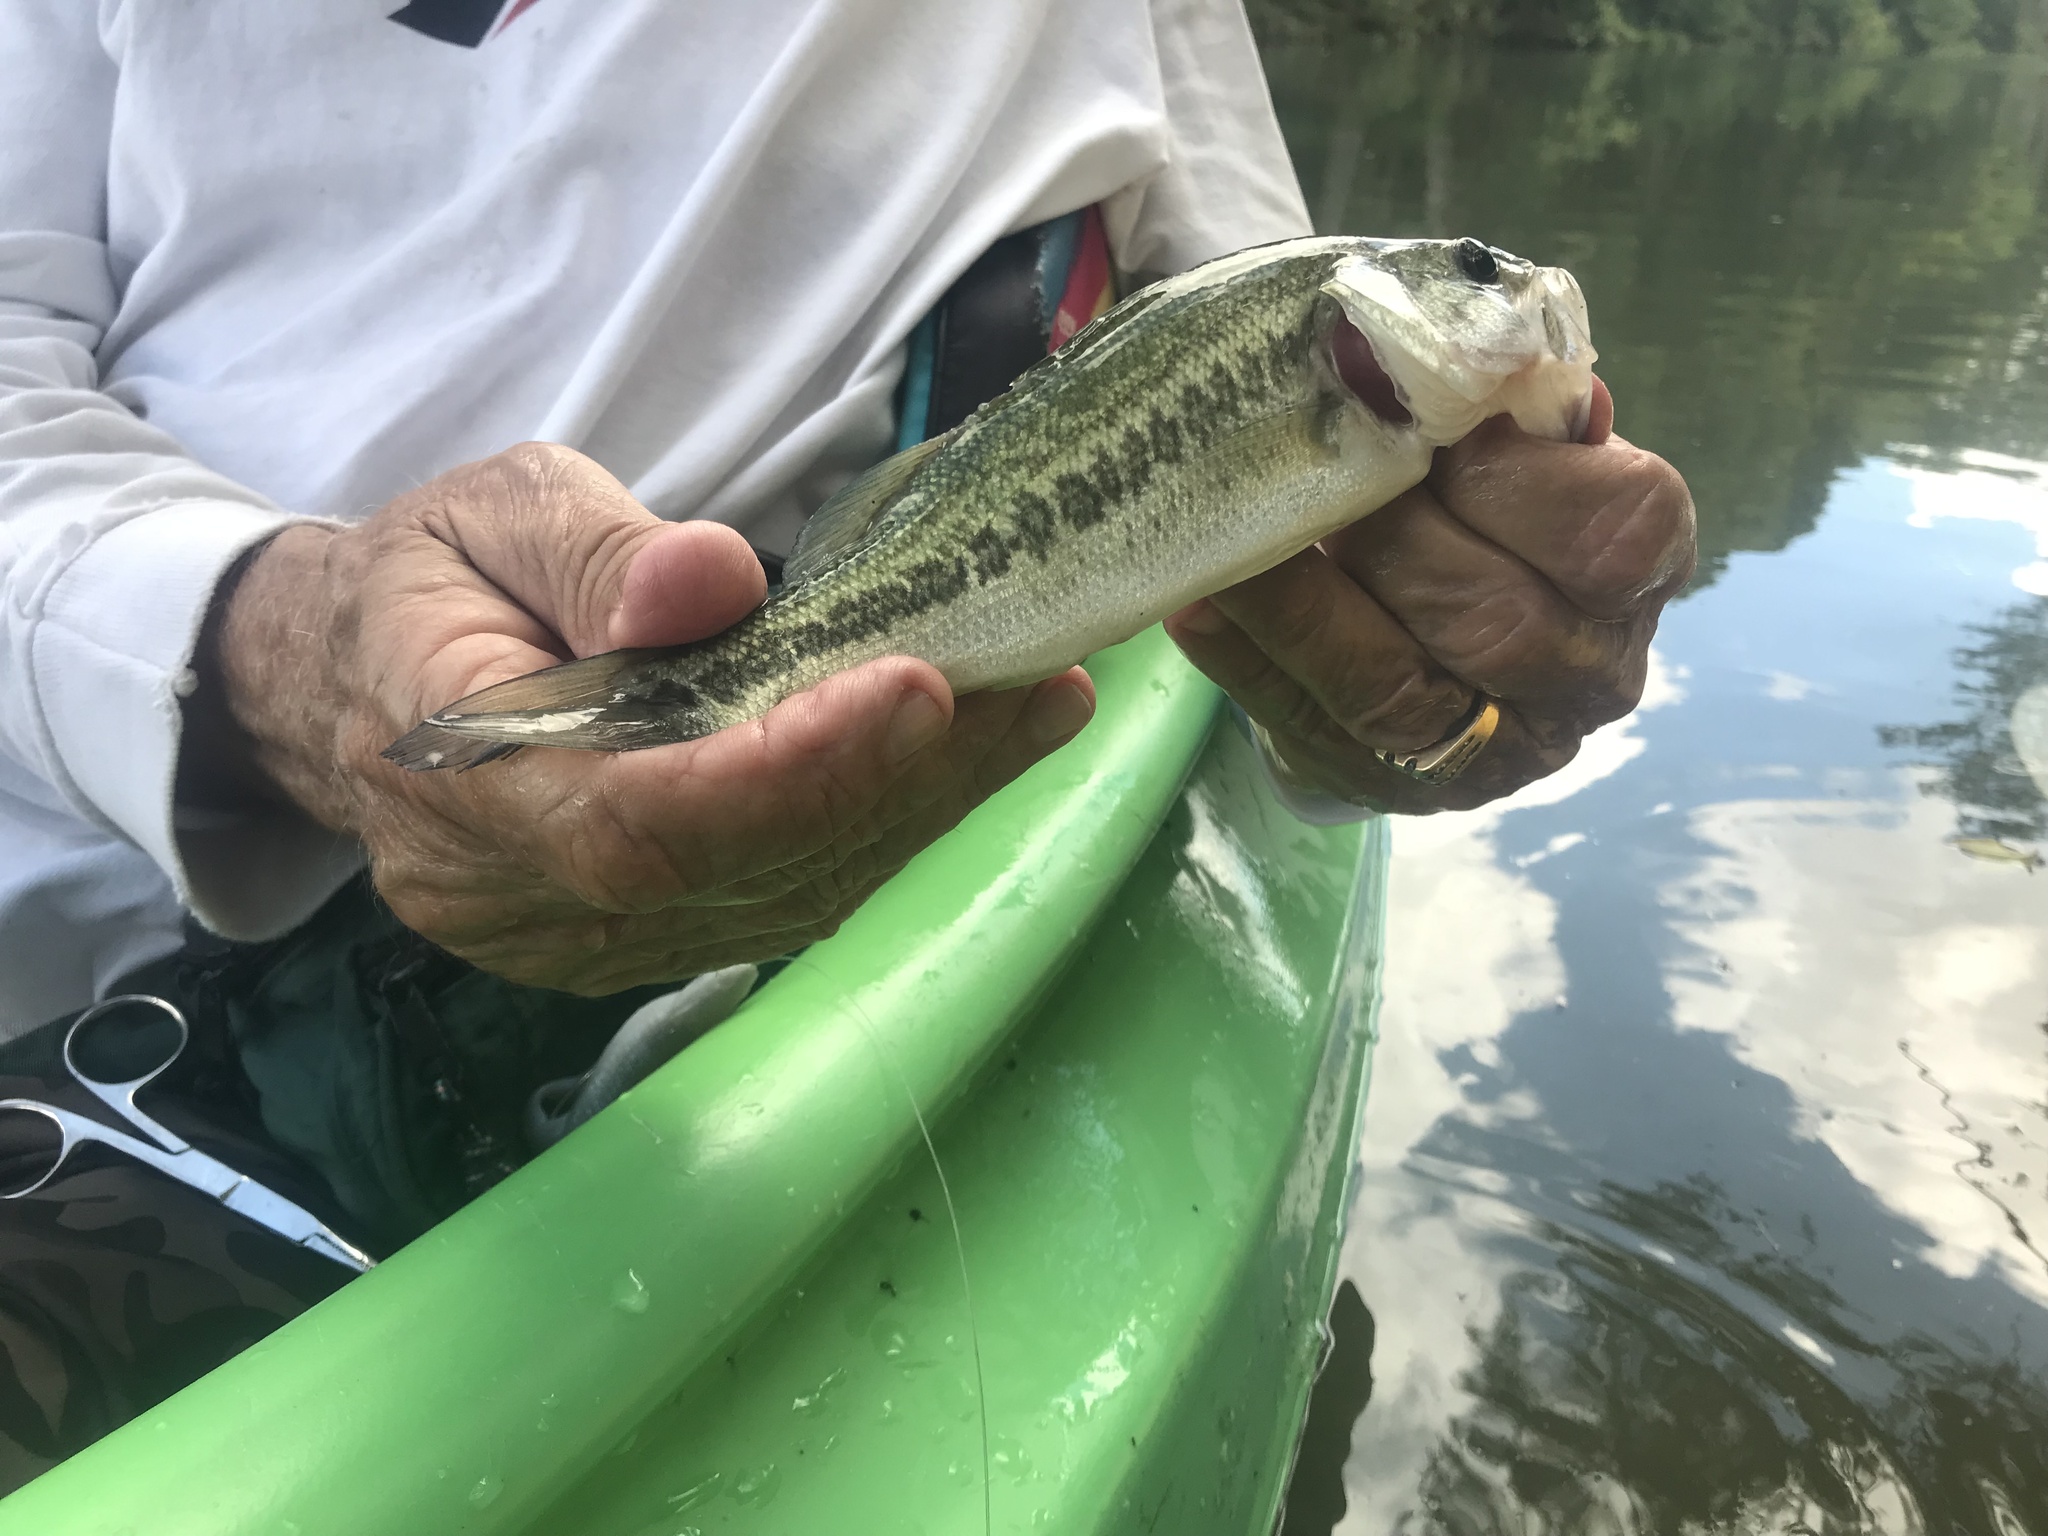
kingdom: Animalia
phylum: Chordata
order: Perciformes
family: Centrarchidae
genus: Micropterus
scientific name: Micropterus
